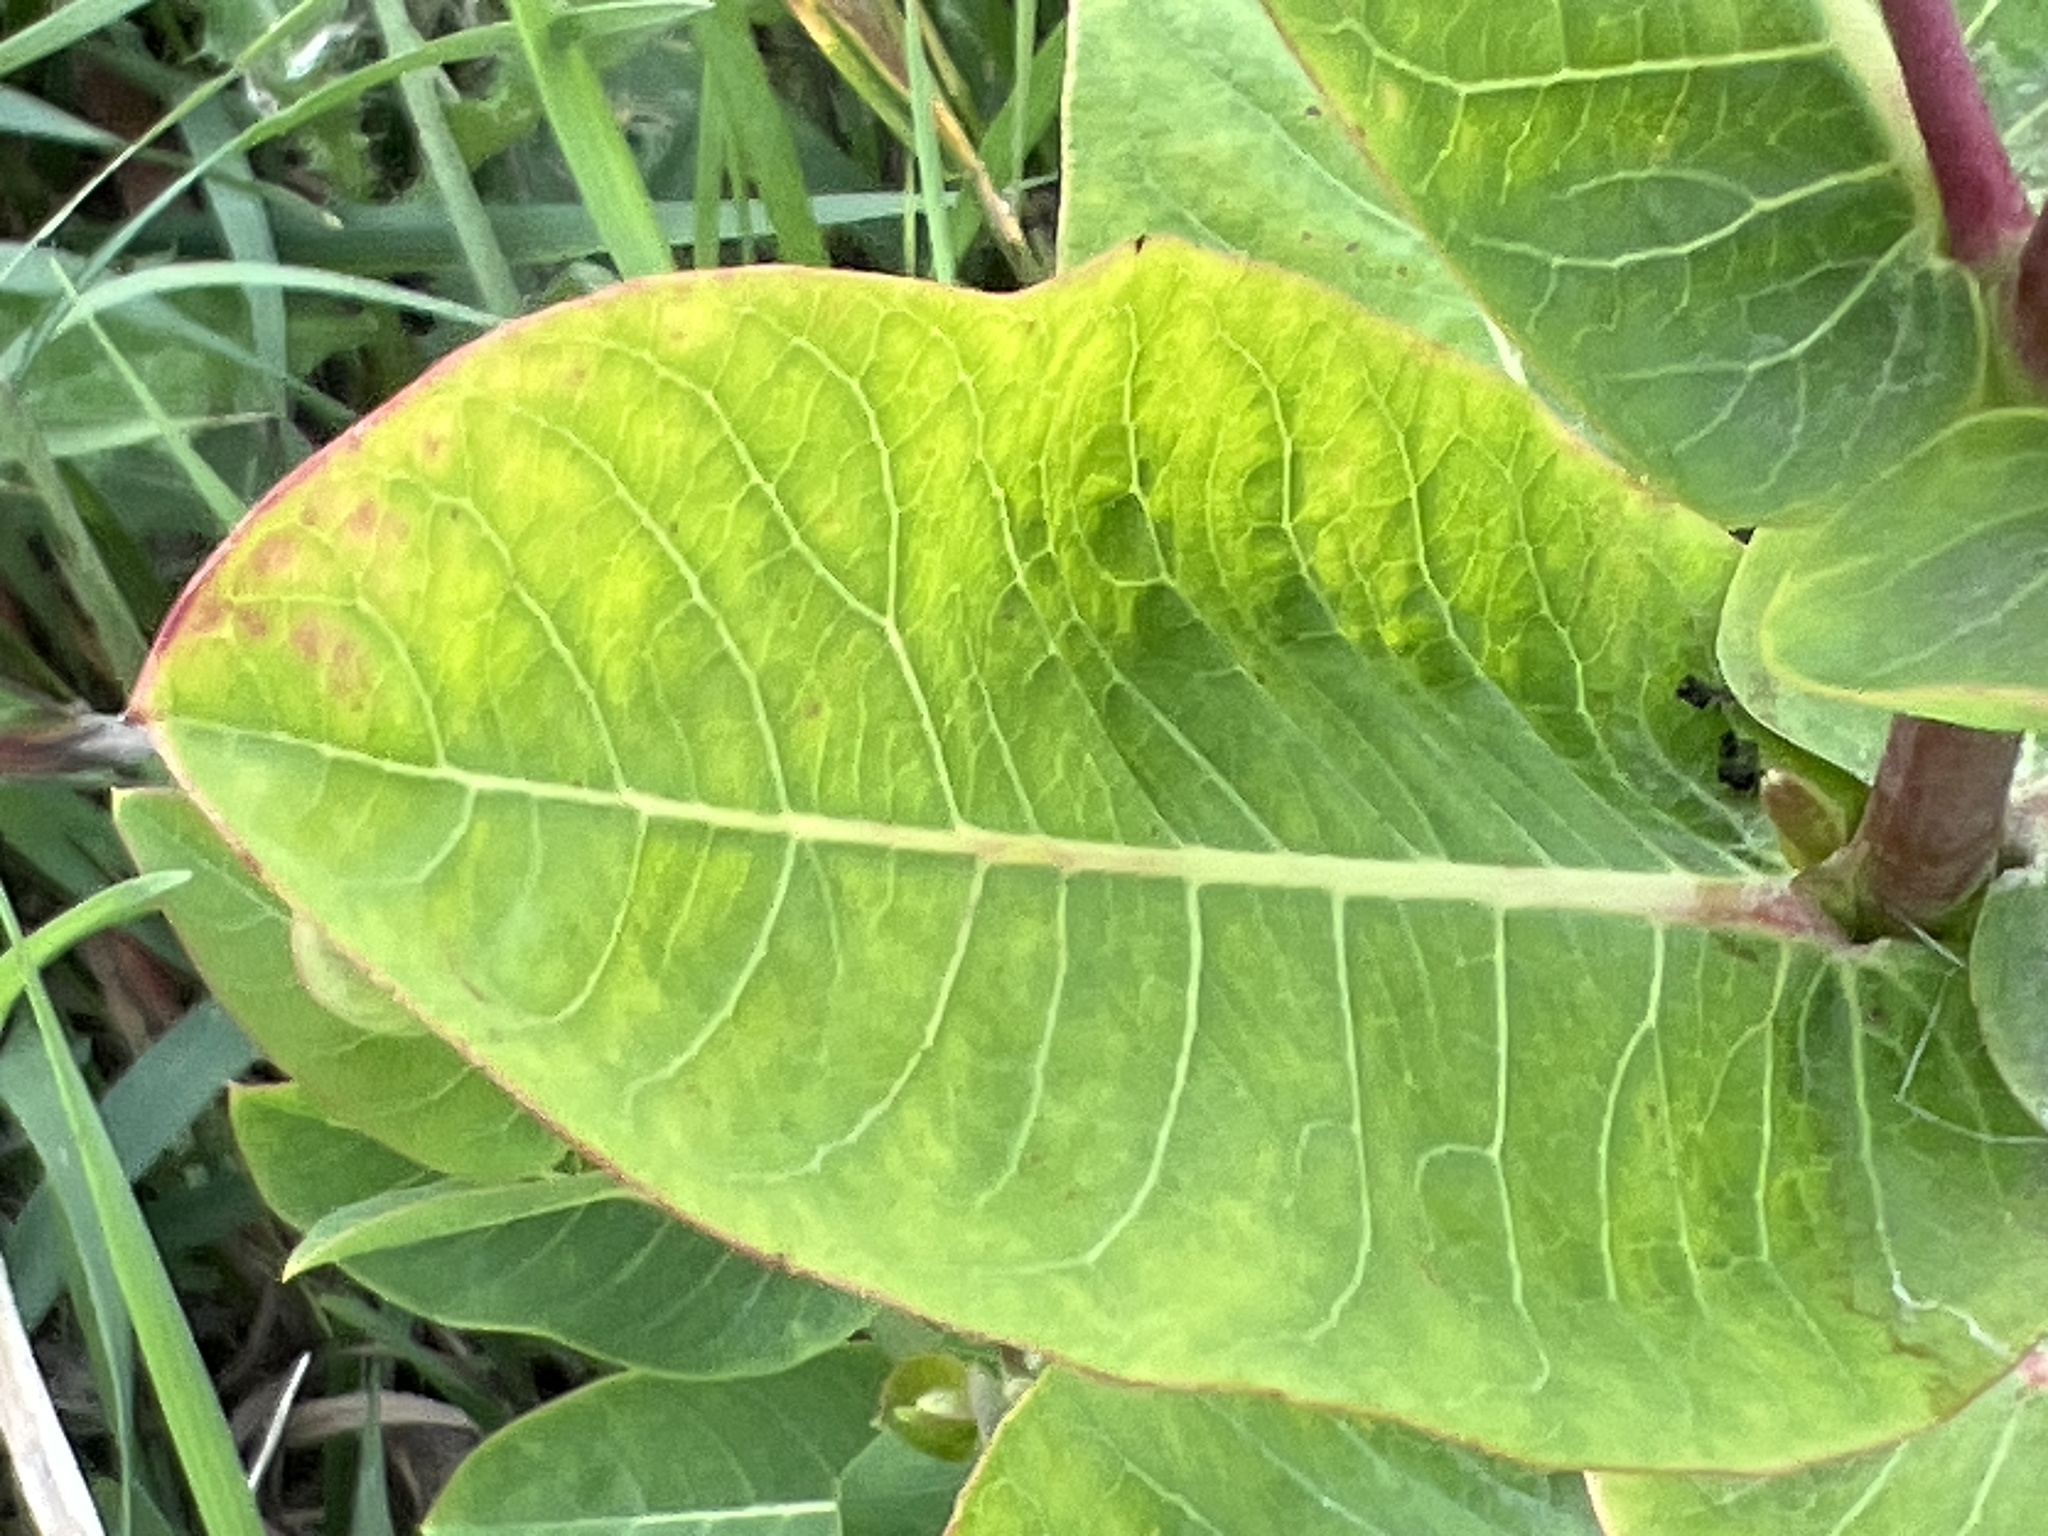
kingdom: Plantae
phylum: Tracheophyta
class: Magnoliopsida
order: Gentianales
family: Apocynaceae
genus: Apocynum
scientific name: Apocynum cannabinum
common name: Hemp dogbane
